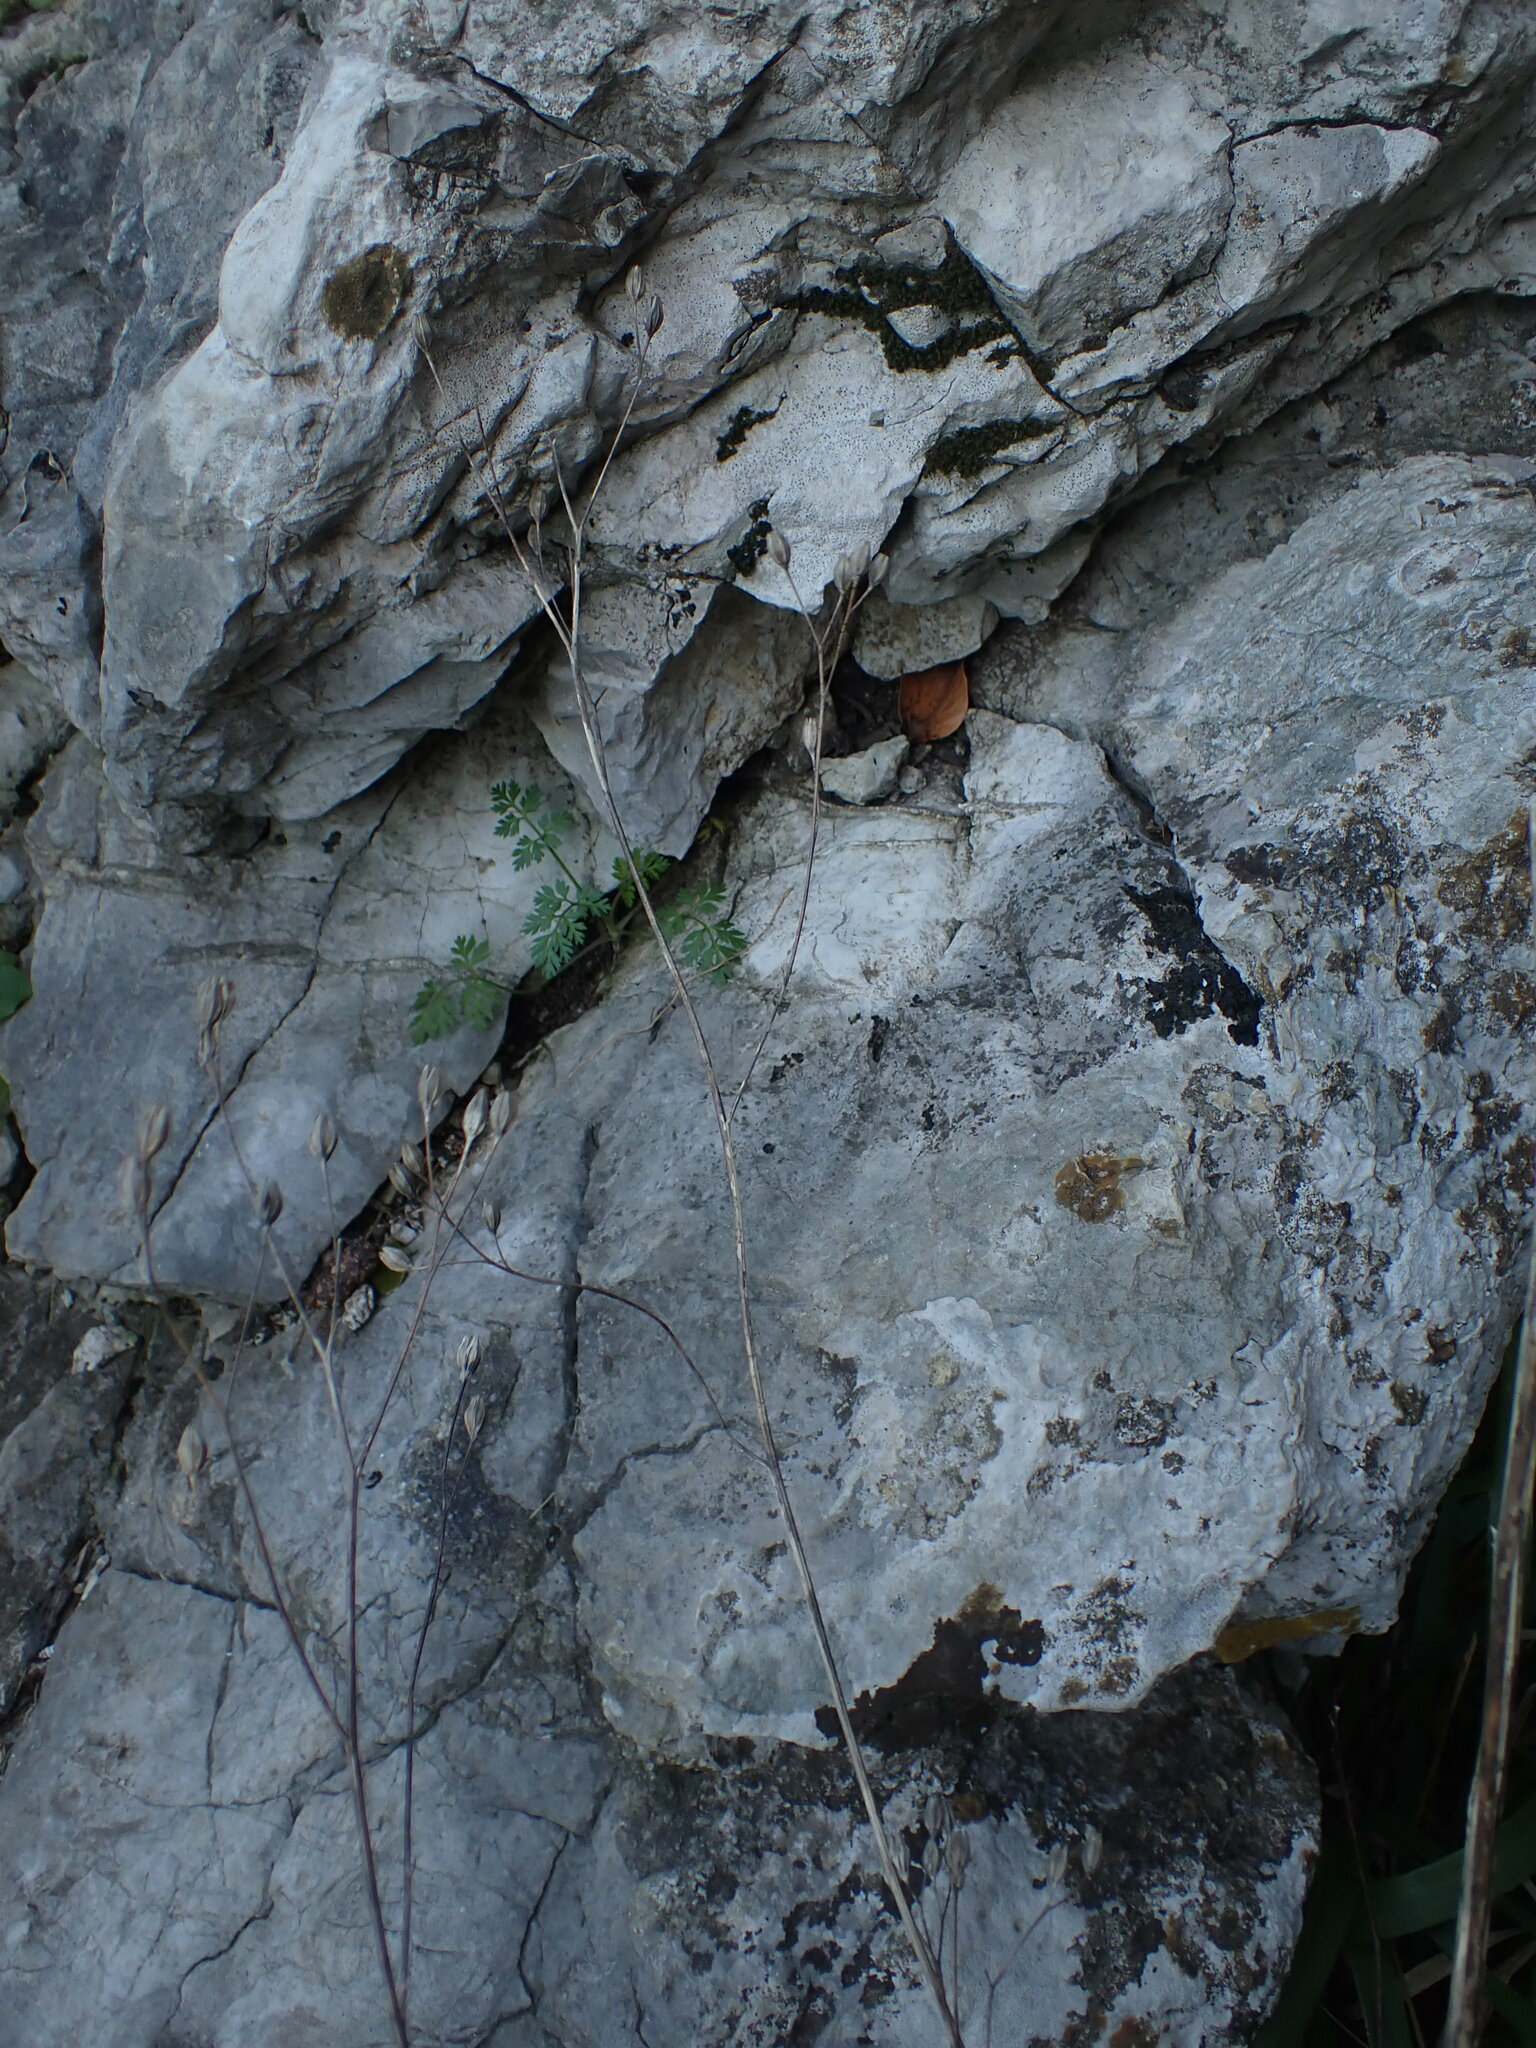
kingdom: Plantae
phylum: Tracheophyta
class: Magnoliopsida
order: Asterales
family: Asteraceae
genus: Lapsana
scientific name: Lapsana communis
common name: Nipplewort
